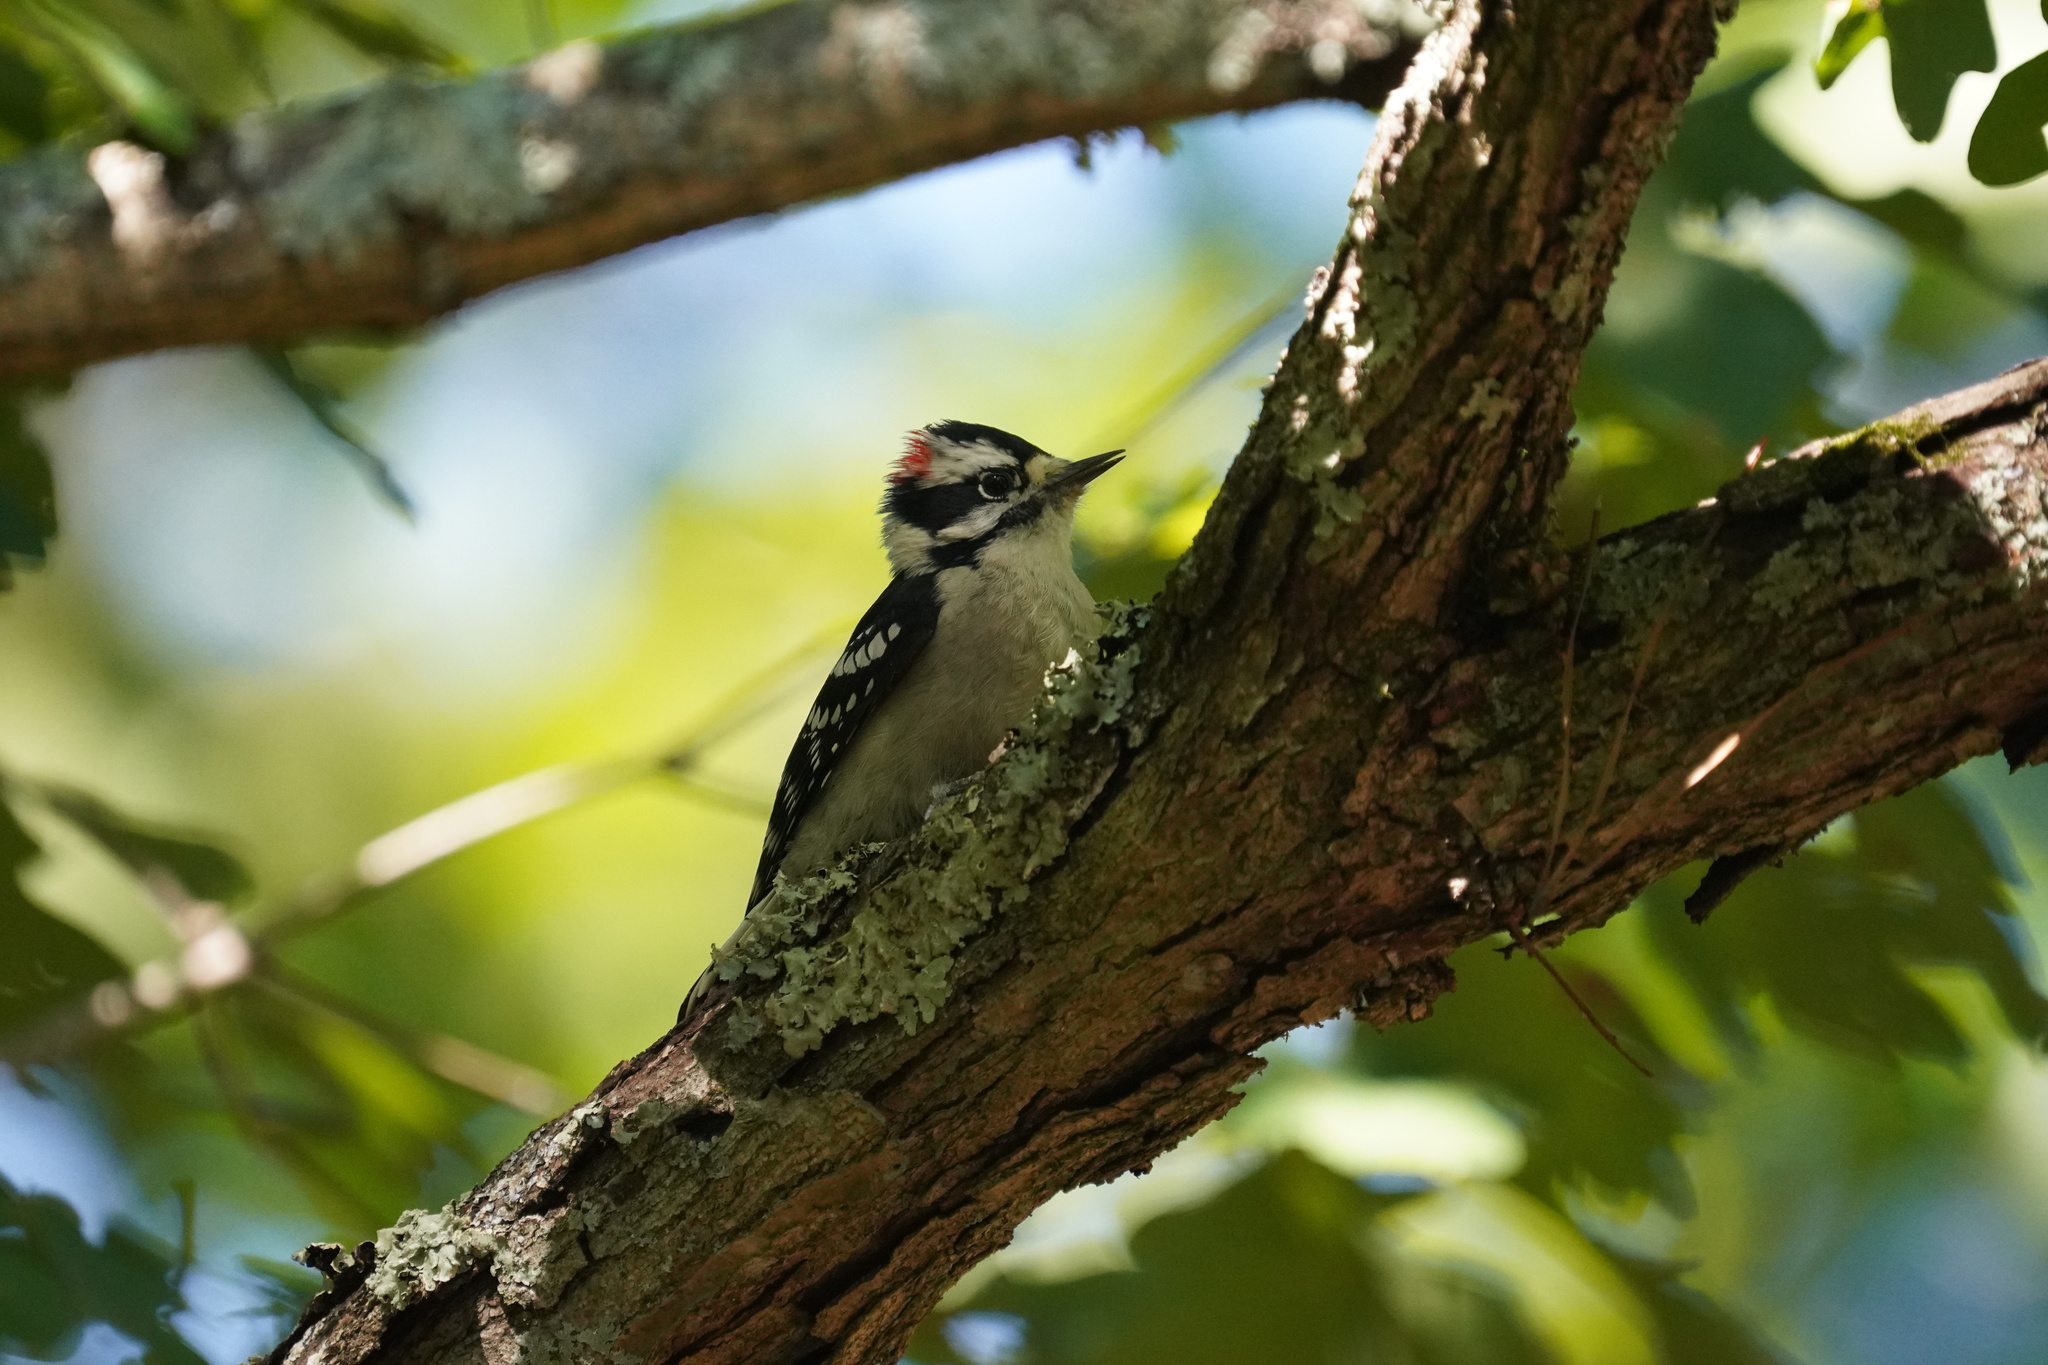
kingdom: Animalia
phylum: Chordata
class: Aves
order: Piciformes
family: Picidae
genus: Dryobates
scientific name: Dryobates pubescens
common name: Downy woodpecker
